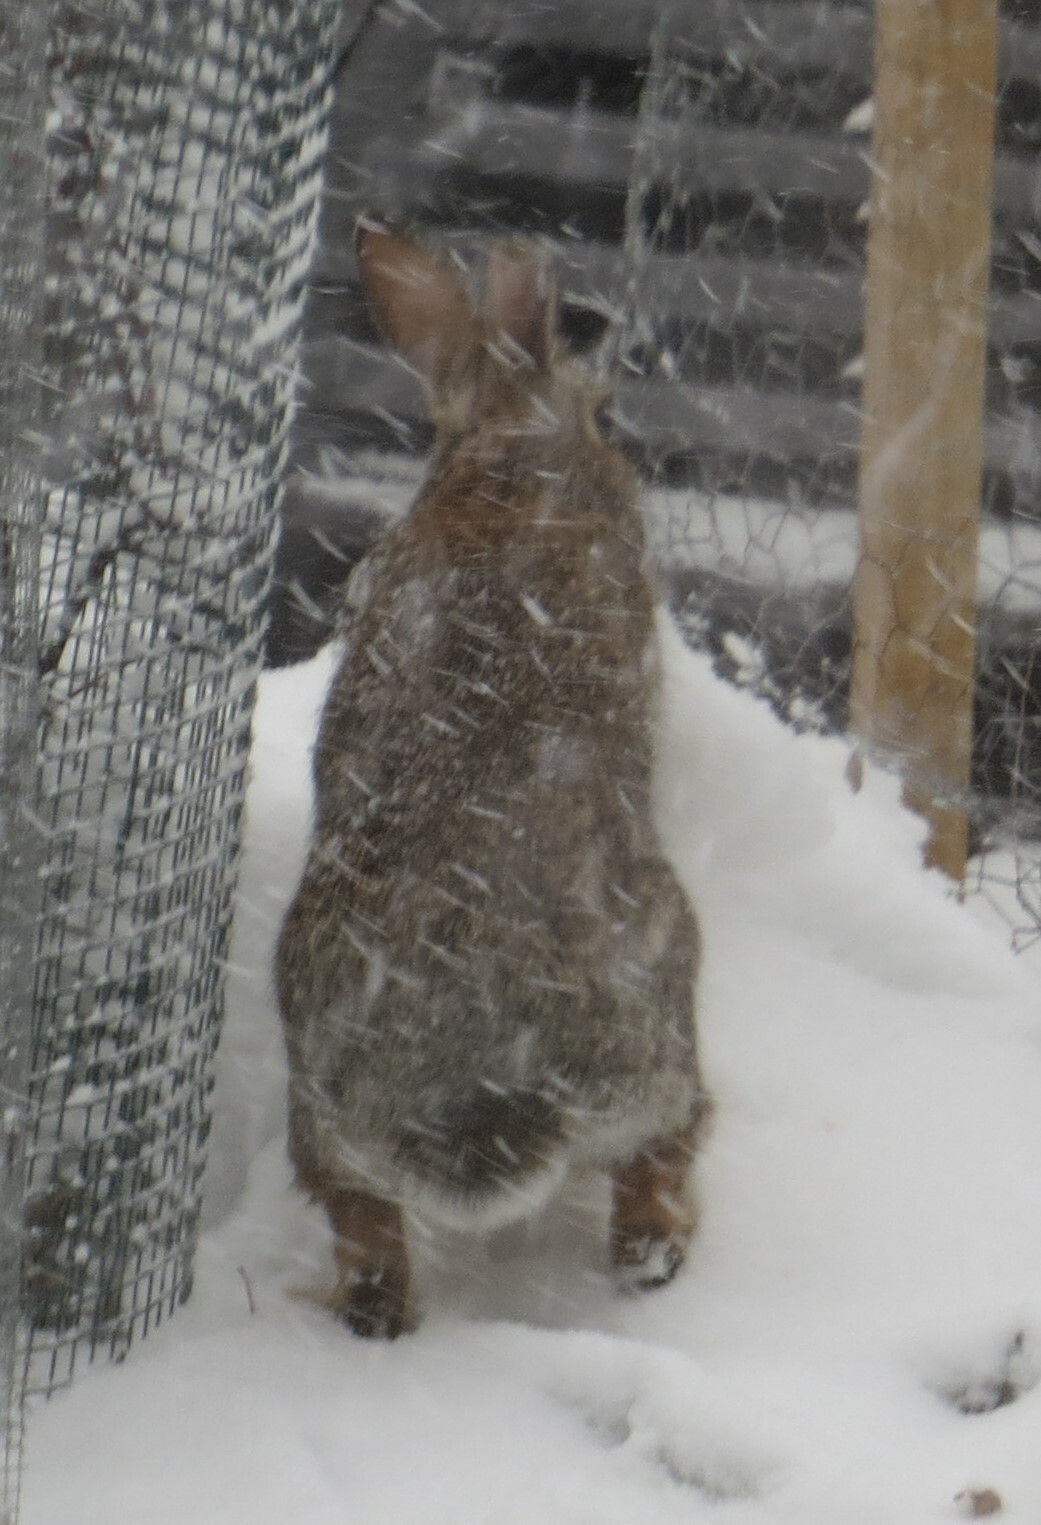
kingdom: Animalia
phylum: Chordata
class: Mammalia
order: Lagomorpha
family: Leporidae
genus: Sylvilagus
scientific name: Sylvilagus floridanus
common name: Eastern cottontail
